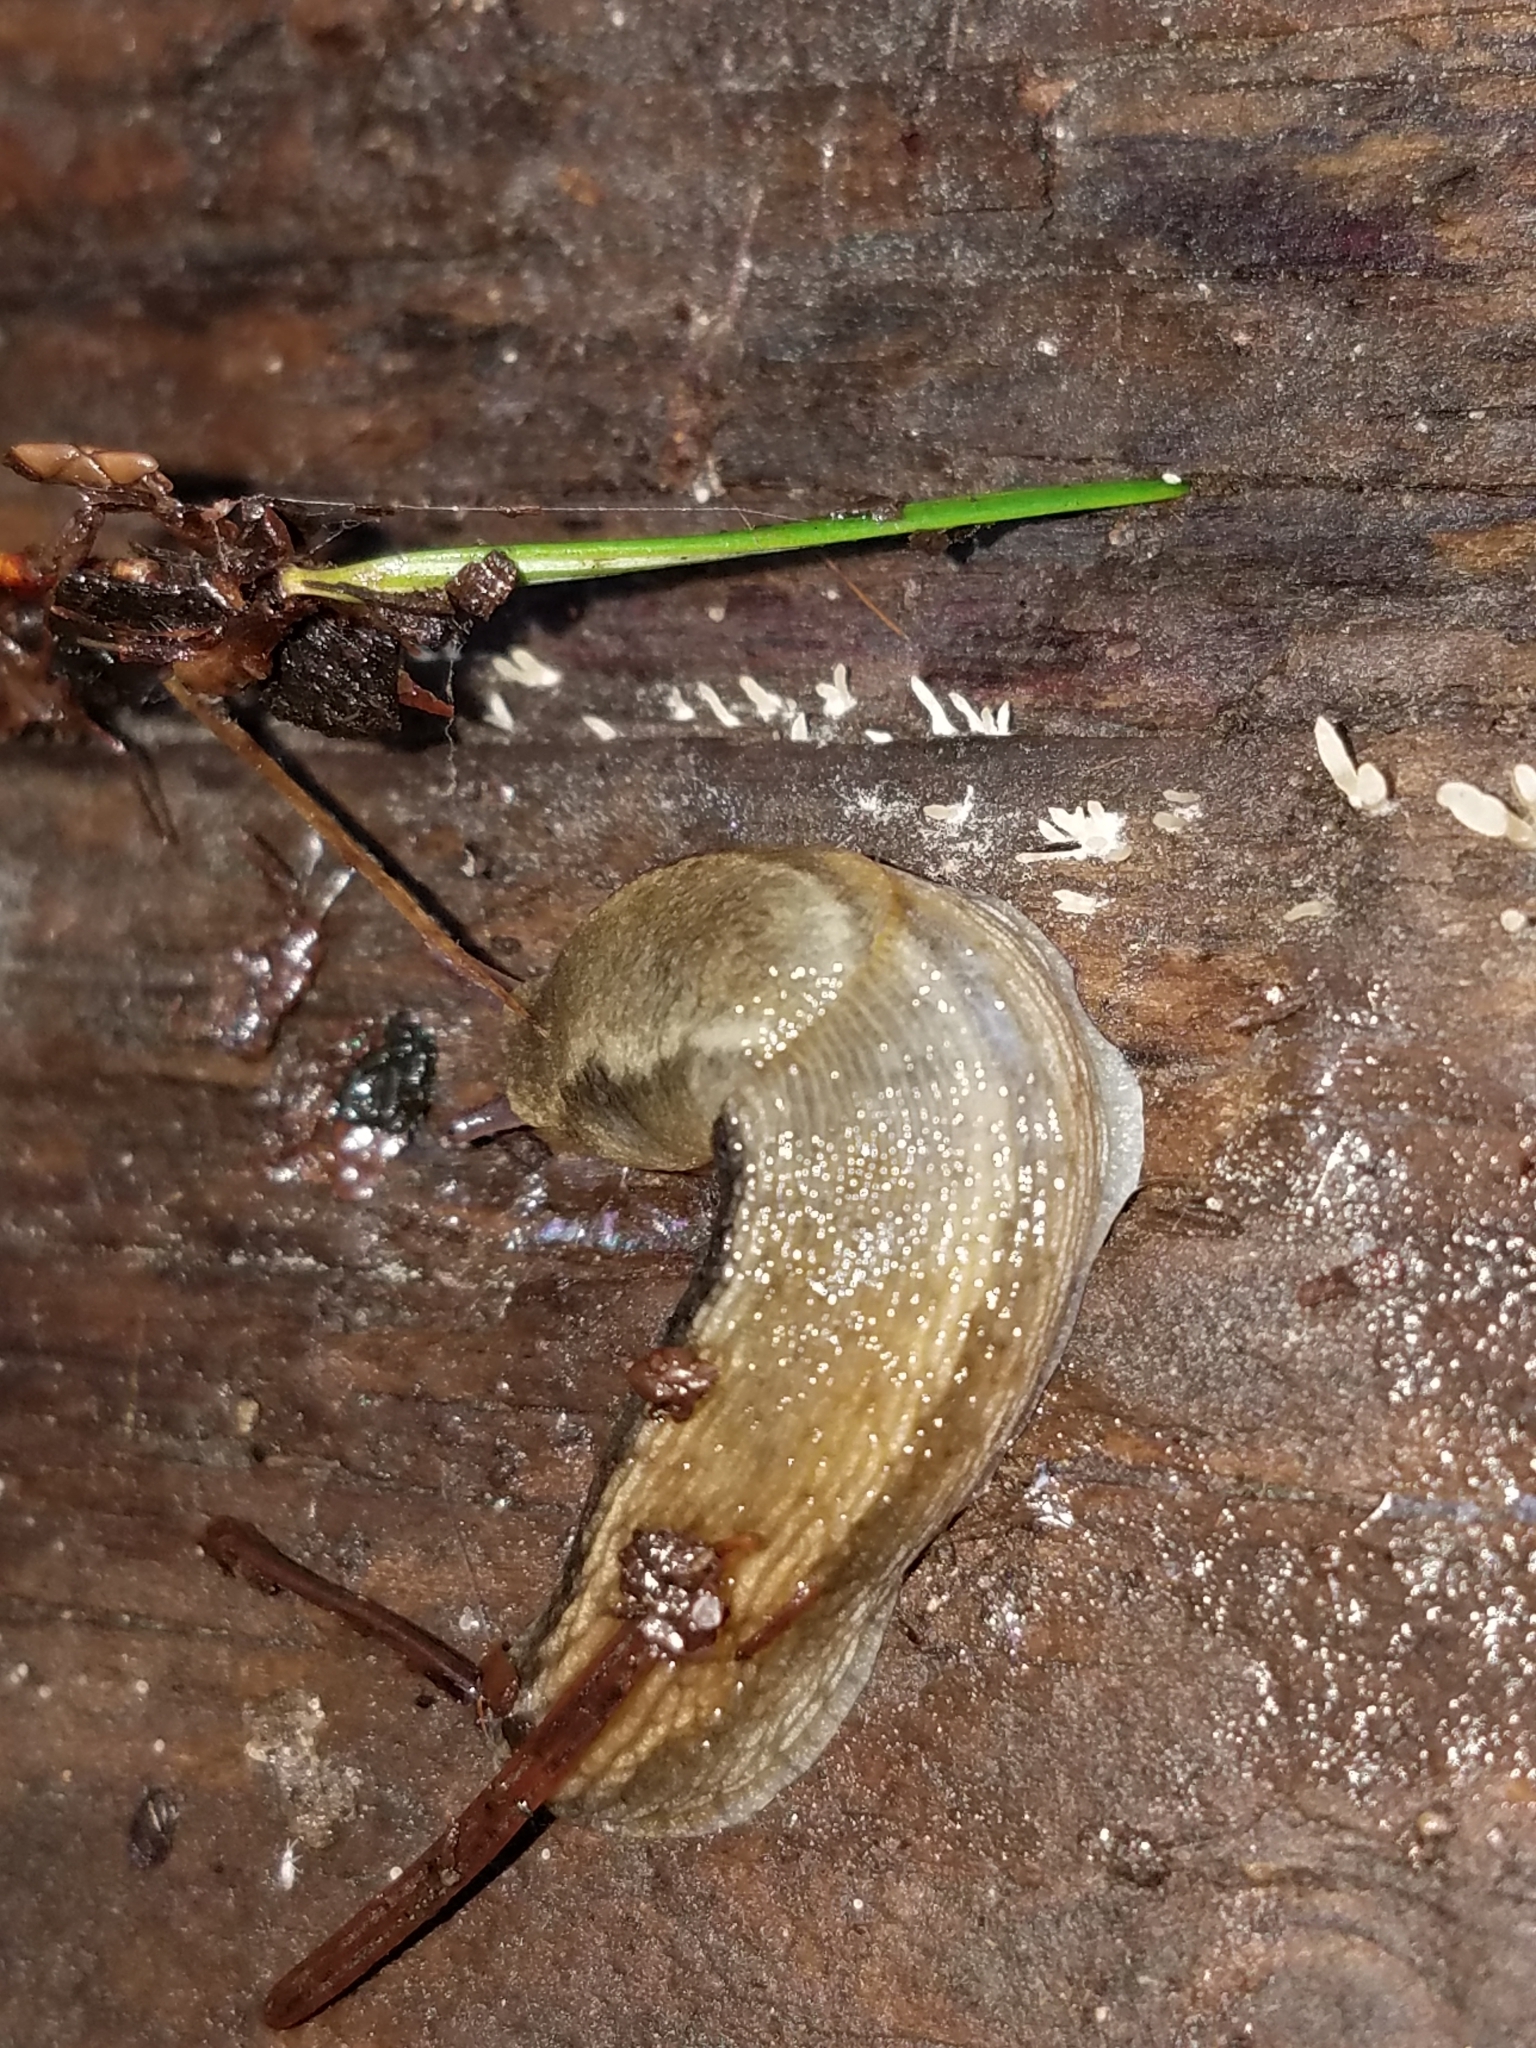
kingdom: Animalia
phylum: Mollusca
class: Gastropoda
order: Stylommatophora
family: Arionidae
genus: Arion
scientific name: Arion subfuscus
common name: Dusky arion
